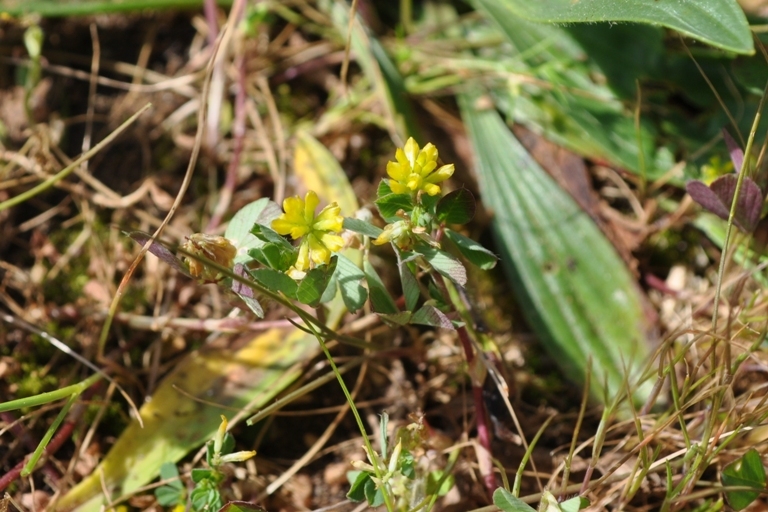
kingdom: Plantae
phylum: Tracheophyta
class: Magnoliopsida
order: Fabales
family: Fabaceae
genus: Trifolium
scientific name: Trifolium dubium
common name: Suckling clover
